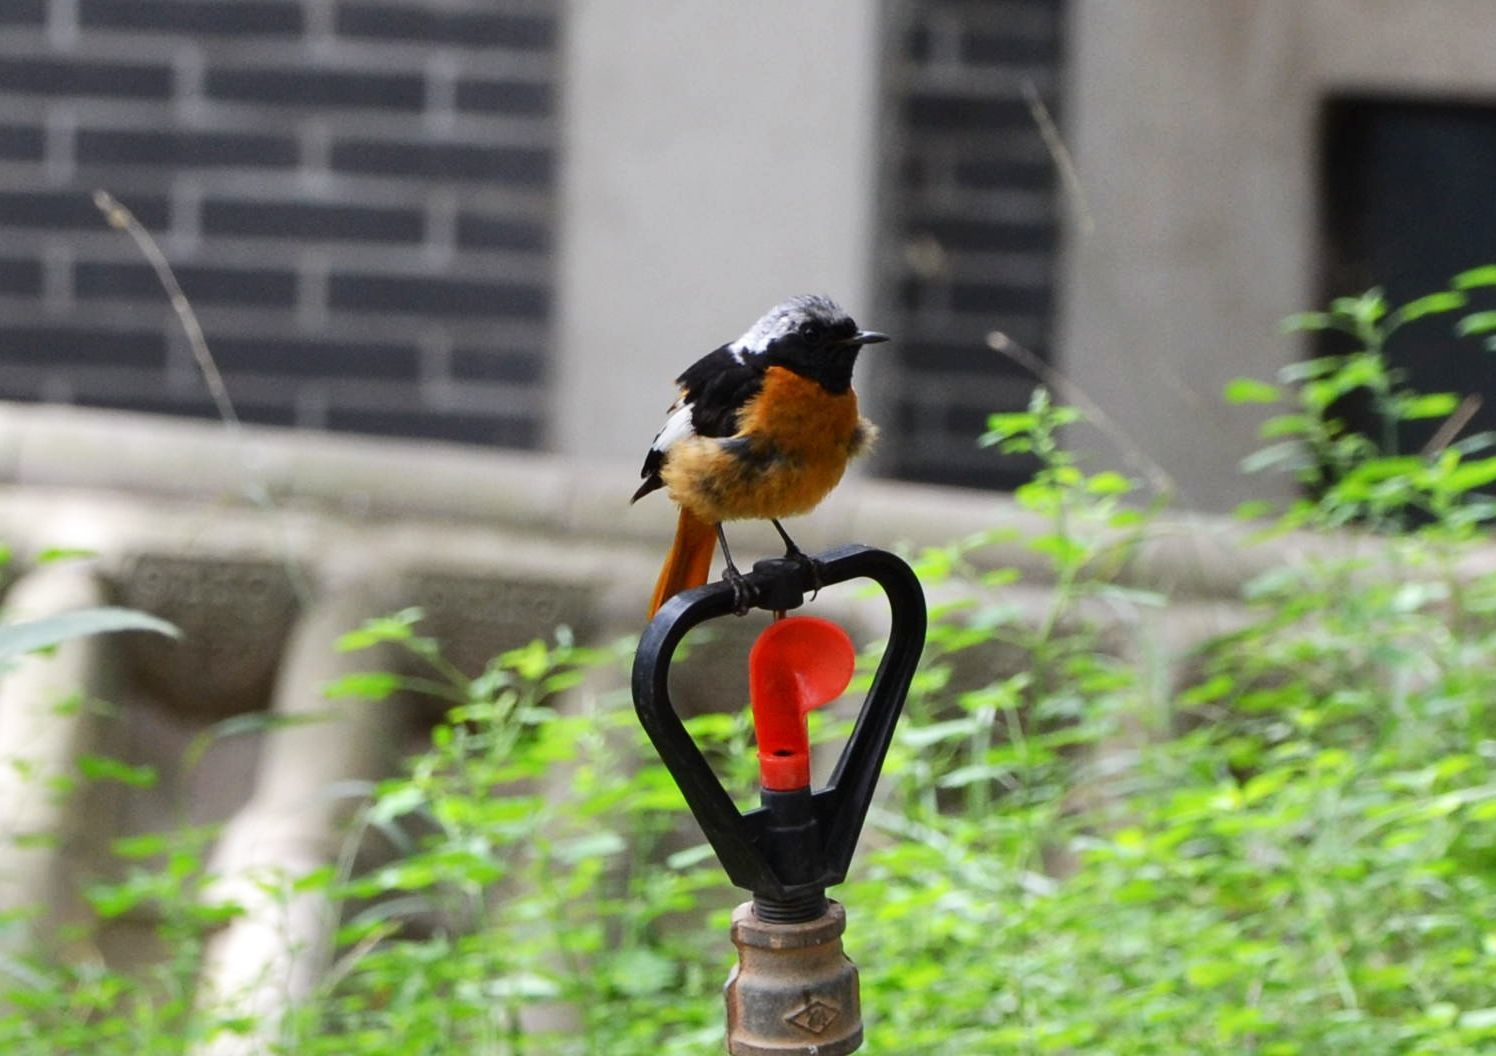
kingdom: Animalia
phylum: Chordata
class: Aves
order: Passeriformes
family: Muscicapidae
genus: Phoenicurus
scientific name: Phoenicurus auroreus
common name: Daurian redstart
